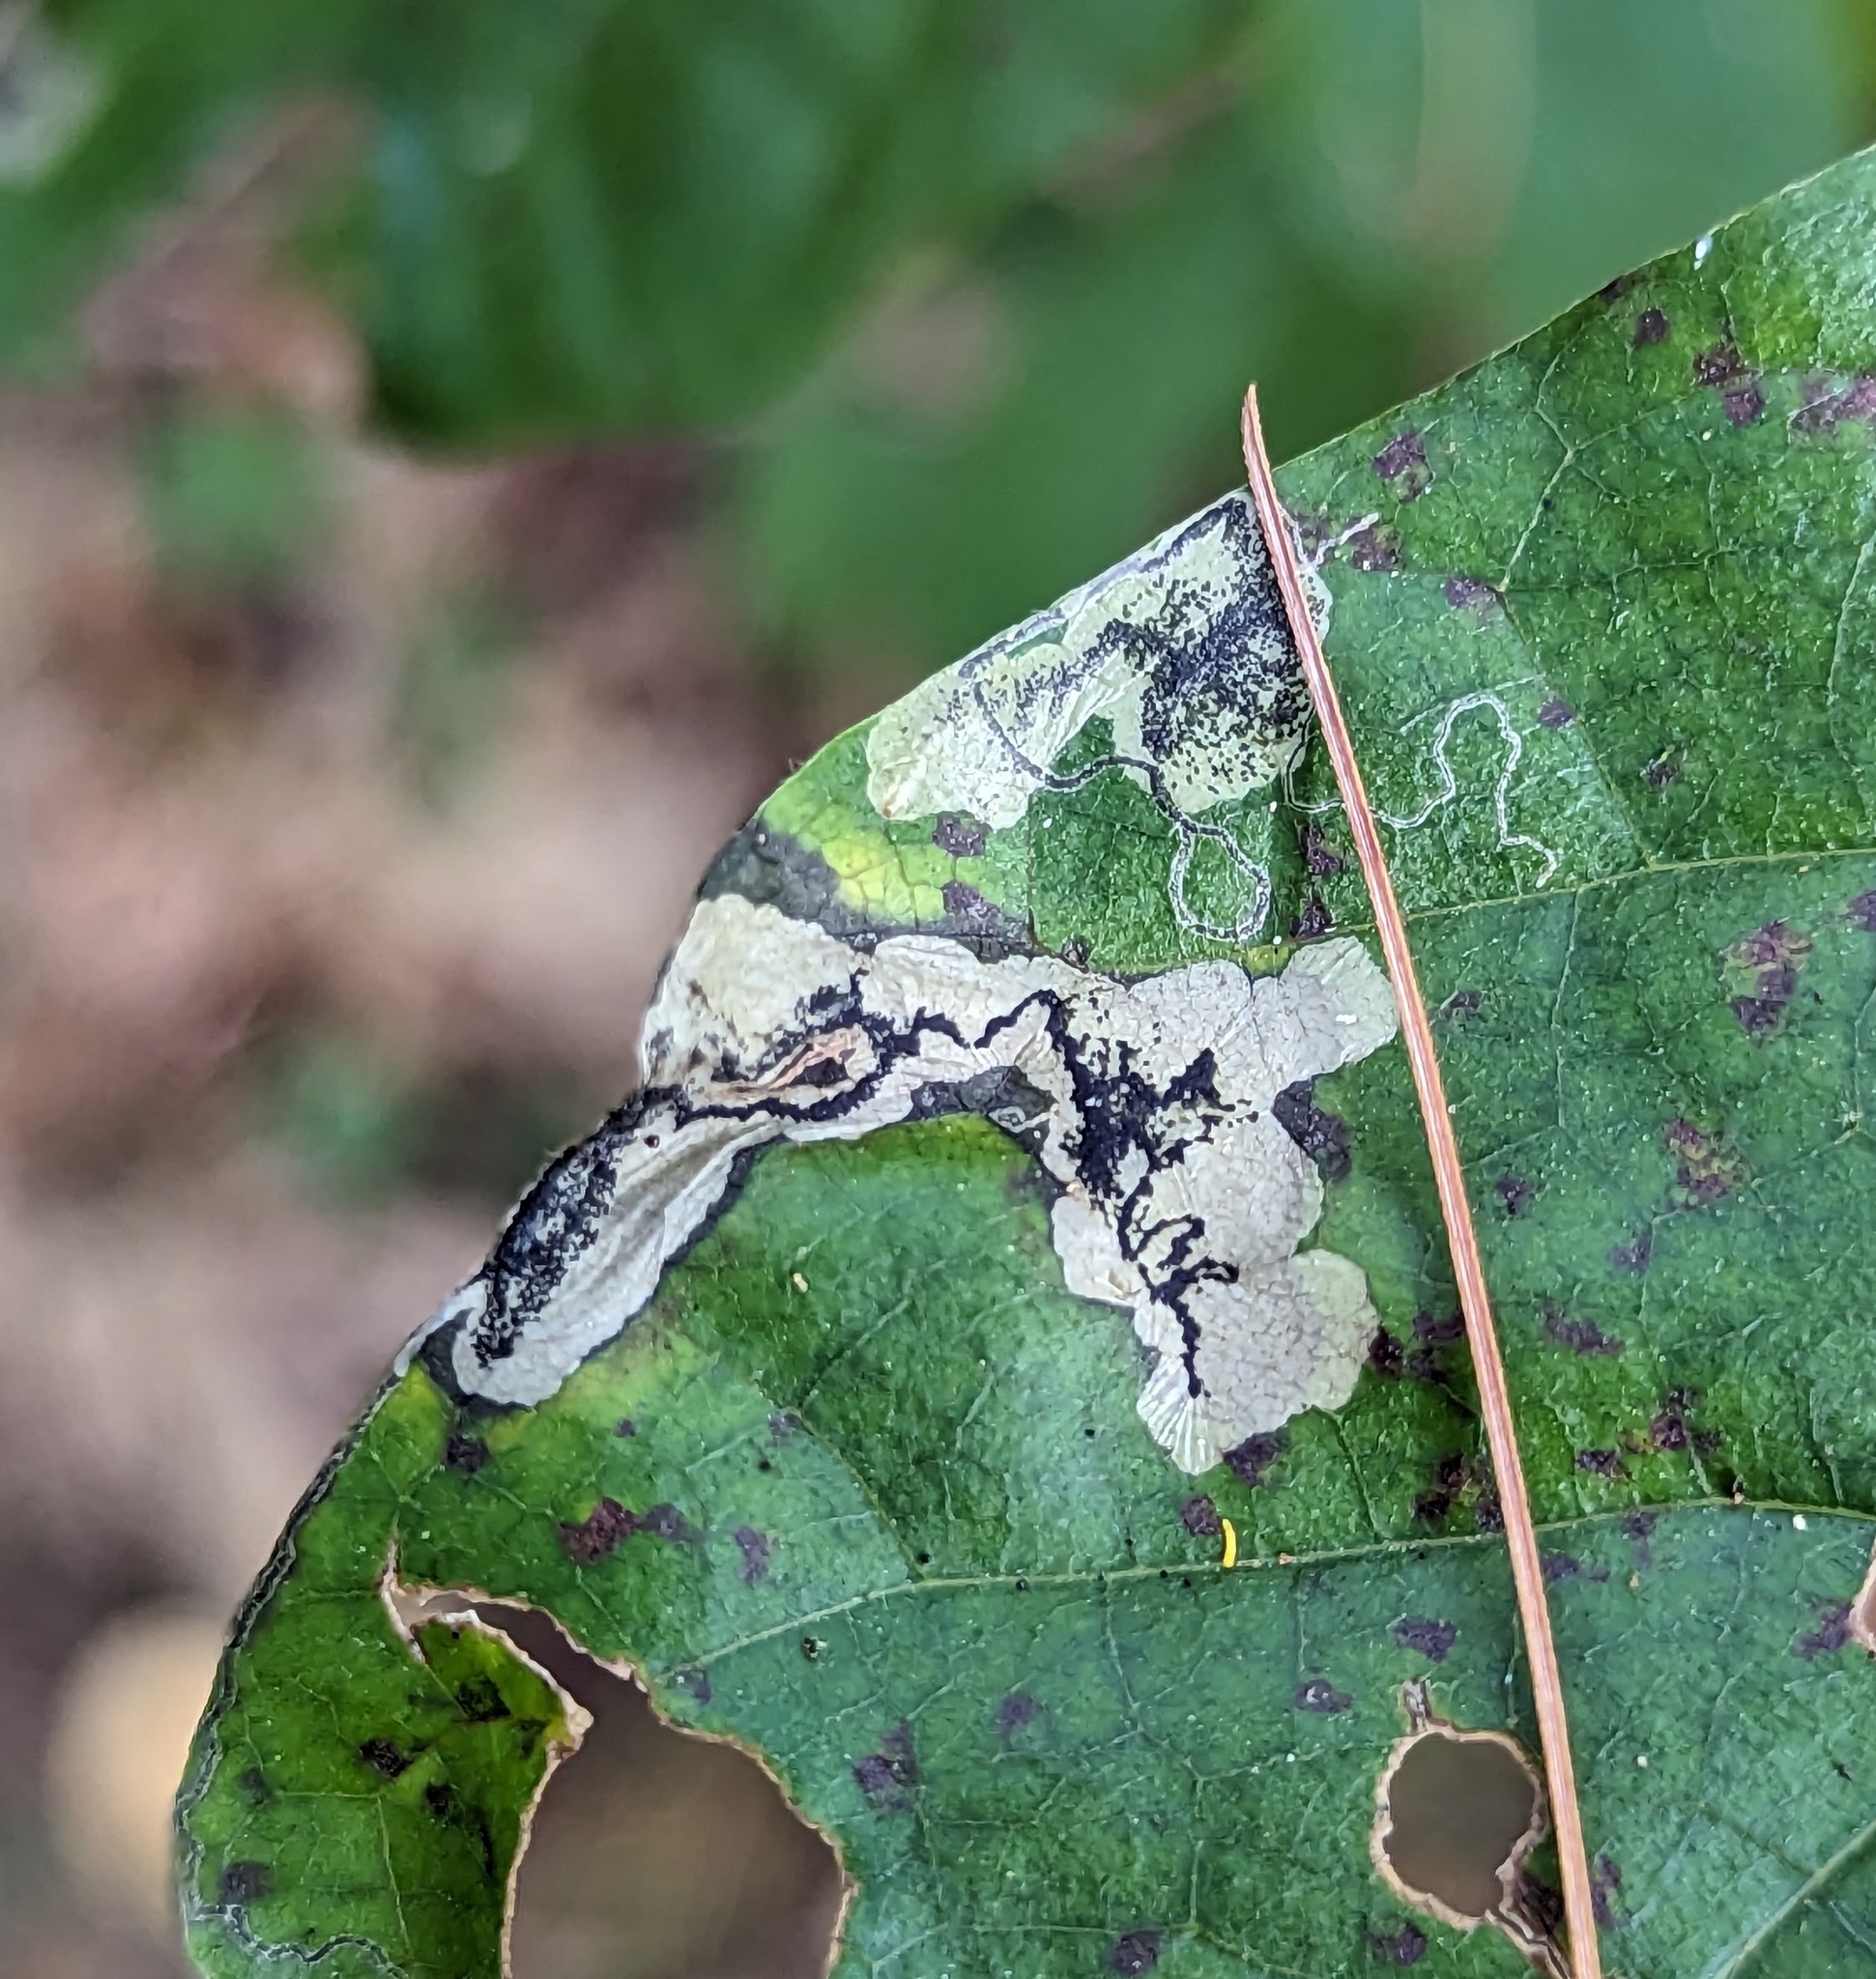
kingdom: Animalia
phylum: Arthropoda
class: Insecta
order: Lepidoptera
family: Nepticulidae
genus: Ectoedemia
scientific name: Ectoedemia nyssaefoliella
